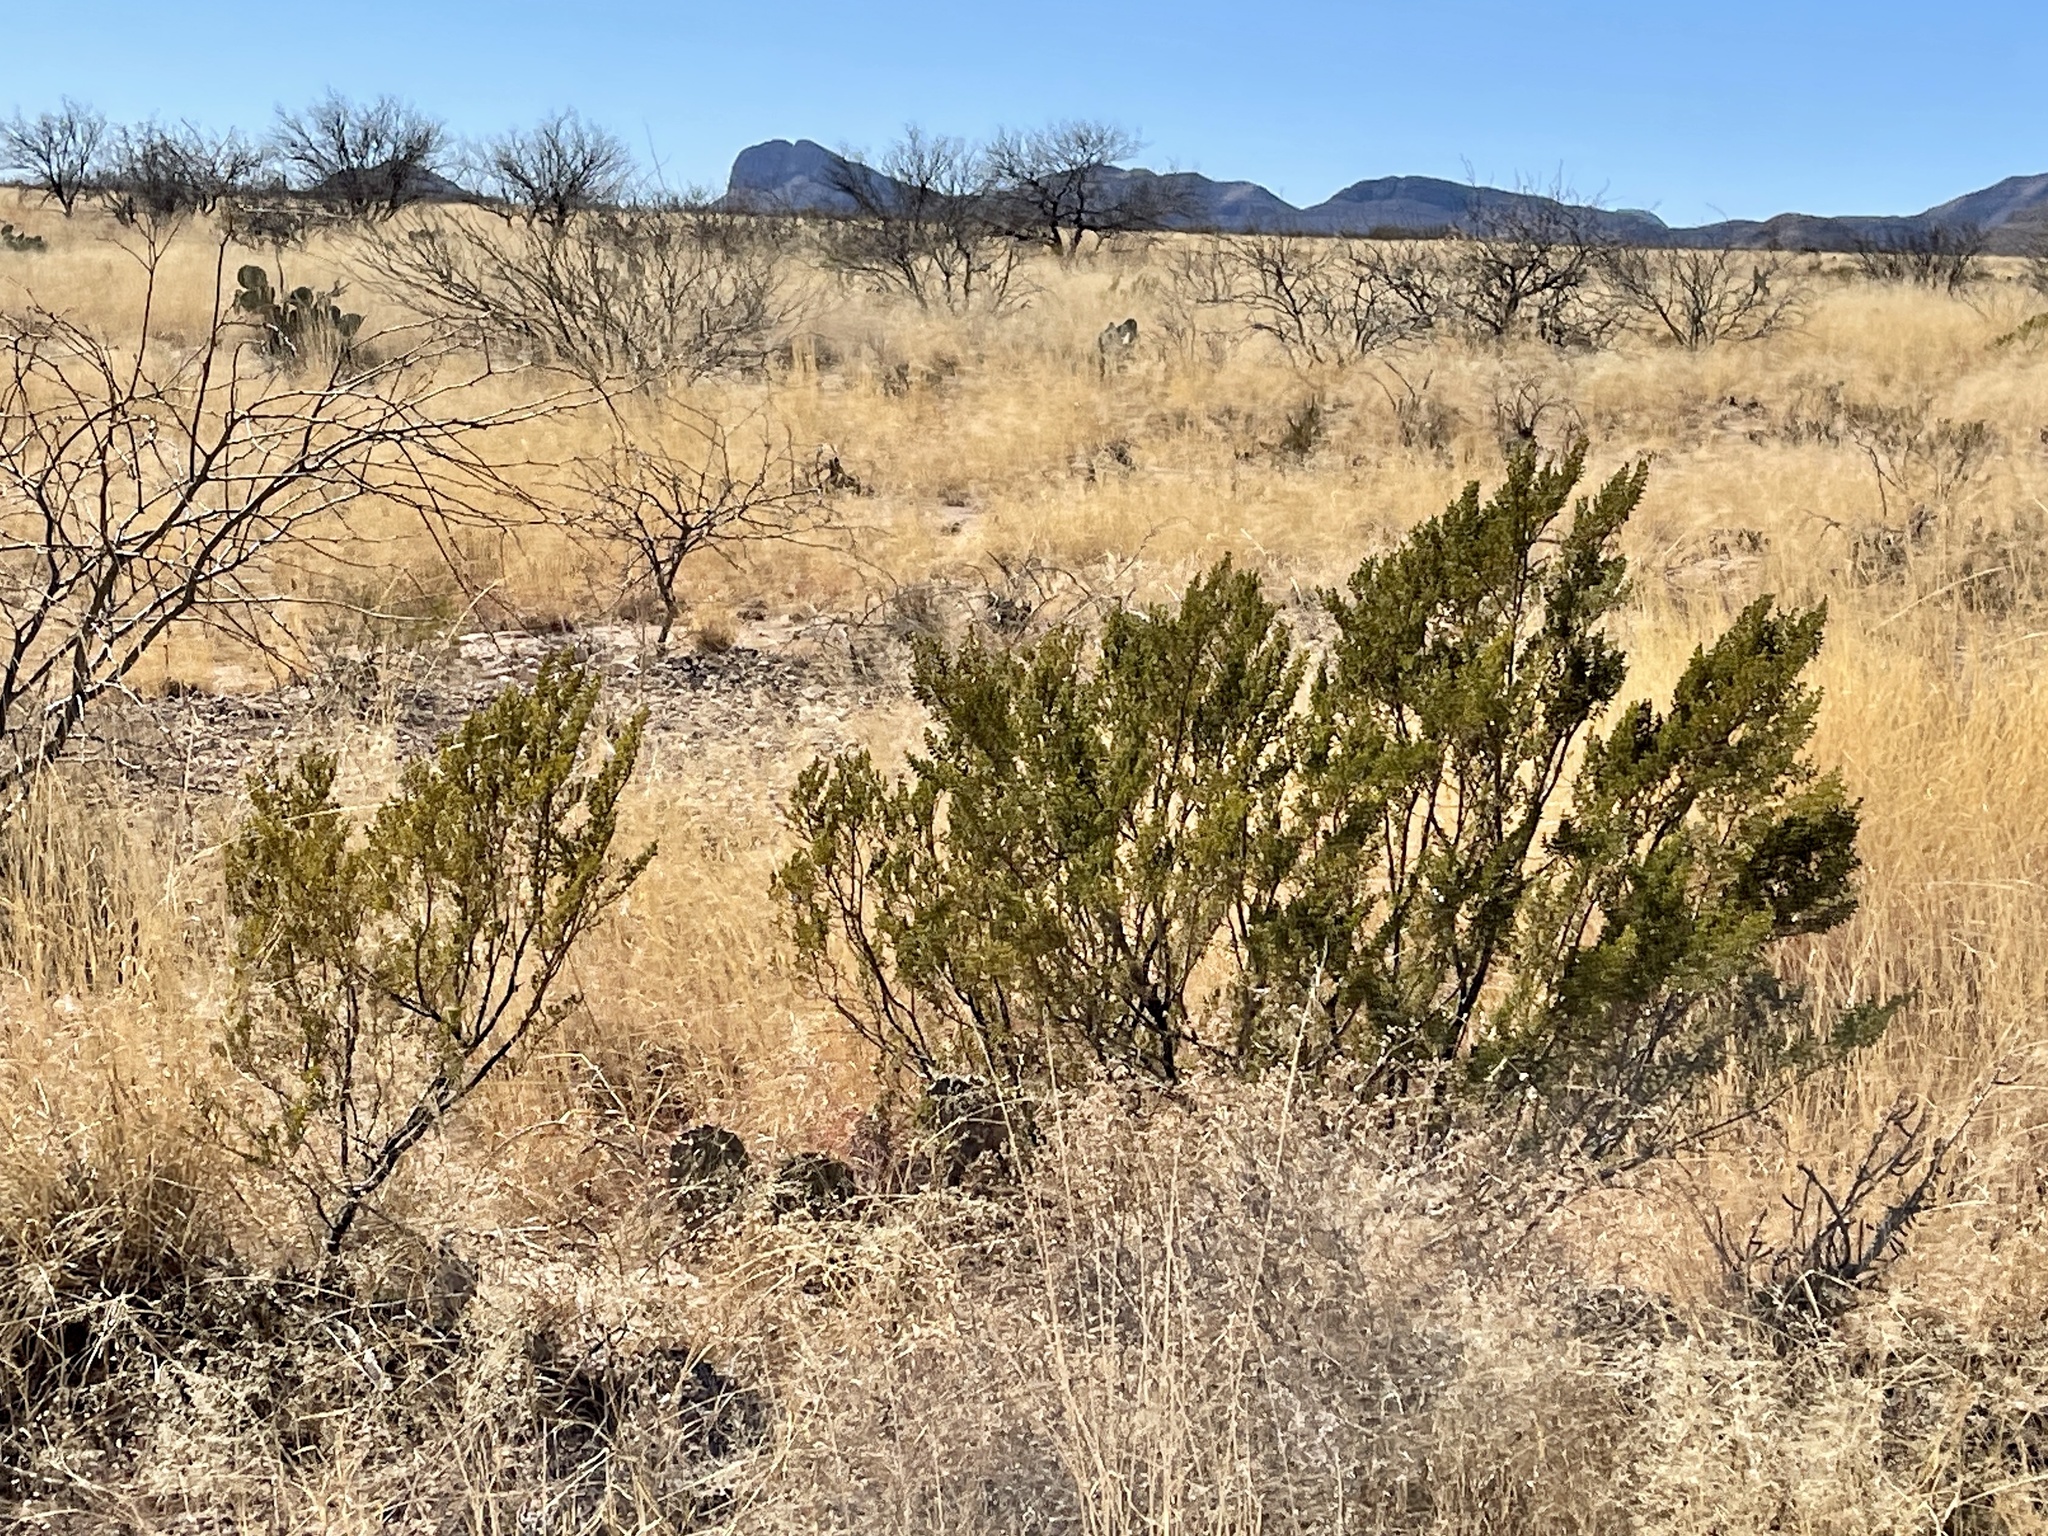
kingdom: Plantae
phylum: Tracheophyta
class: Magnoliopsida
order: Zygophyllales
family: Zygophyllaceae
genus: Larrea
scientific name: Larrea tridentata
